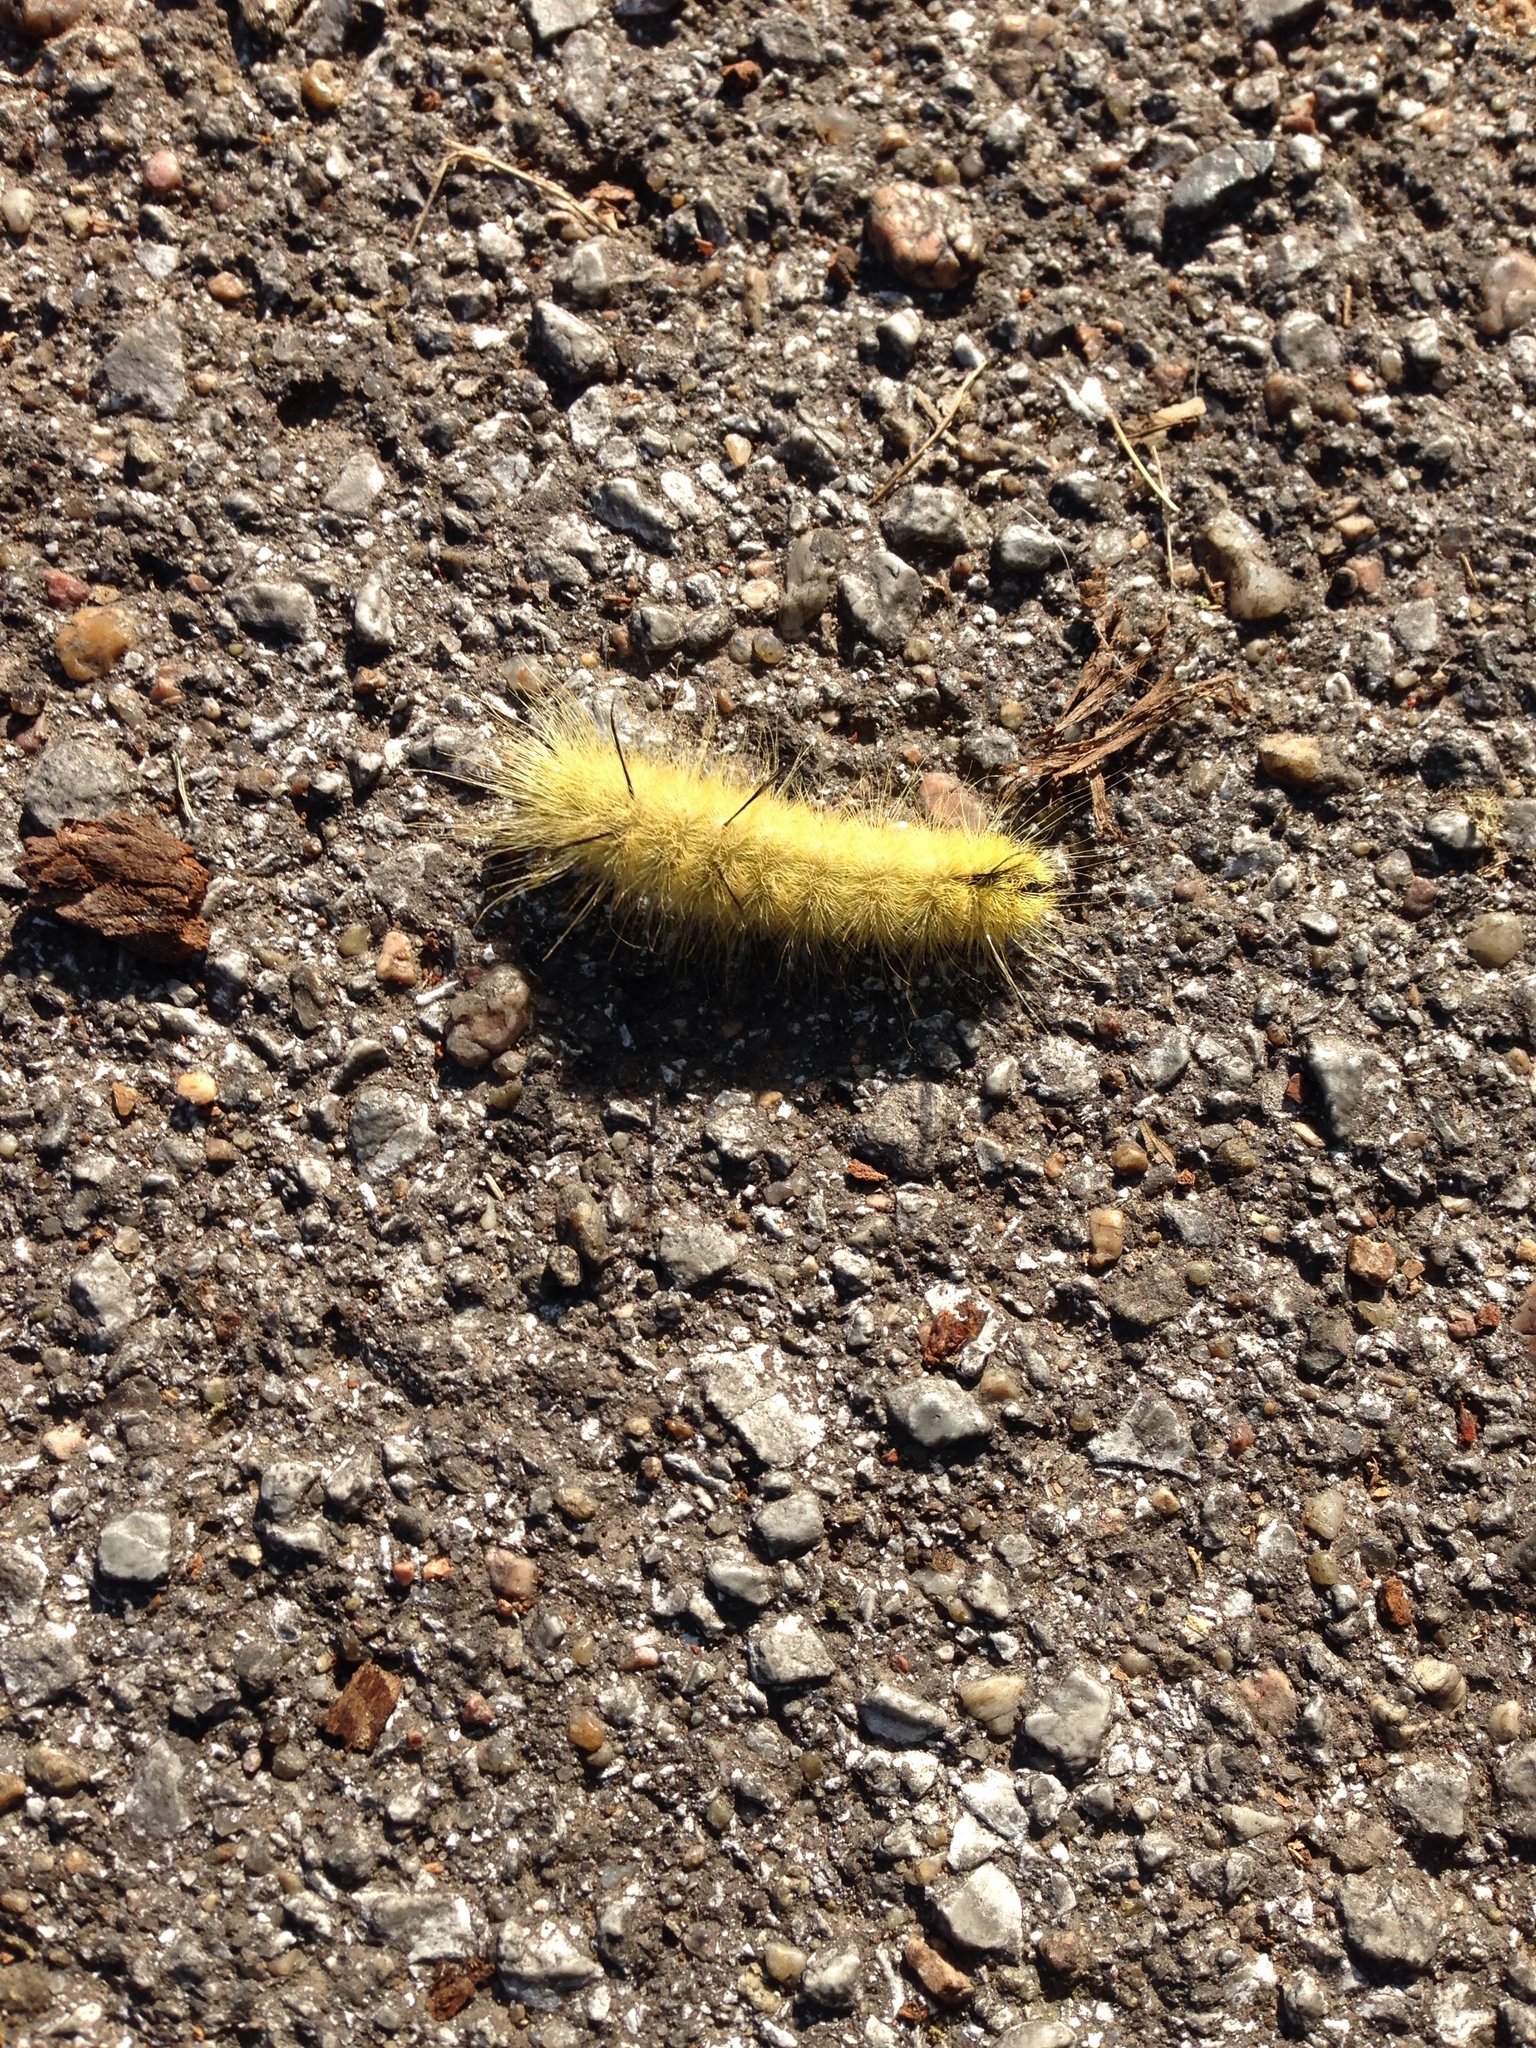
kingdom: Animalia
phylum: Arthropoda
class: Insecta
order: Lepidoptera
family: Noctuidae
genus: Acronicta
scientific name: Acronicta americana
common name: American dagger
